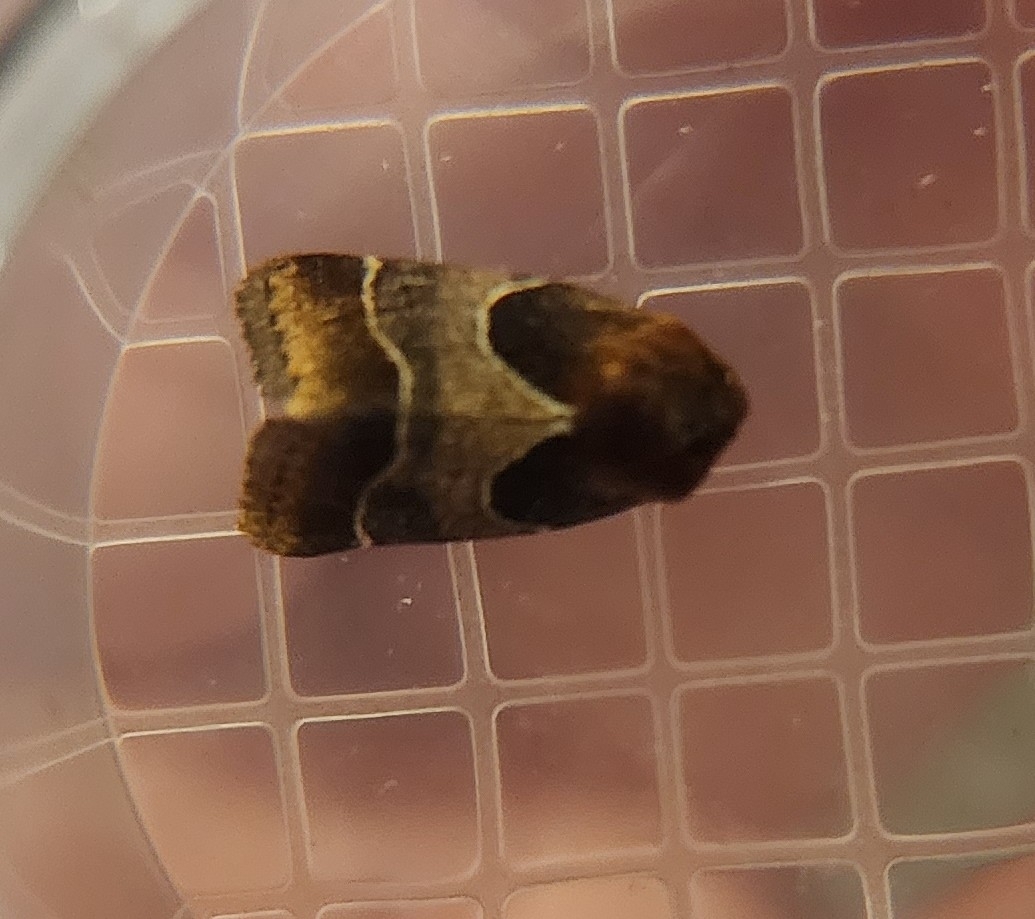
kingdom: Animalia
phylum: Arthropoda
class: Insecta
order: Lepidoptera
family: Noctuidae
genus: Schinia
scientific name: Schinia arcigera
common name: Arcigera flower moth
